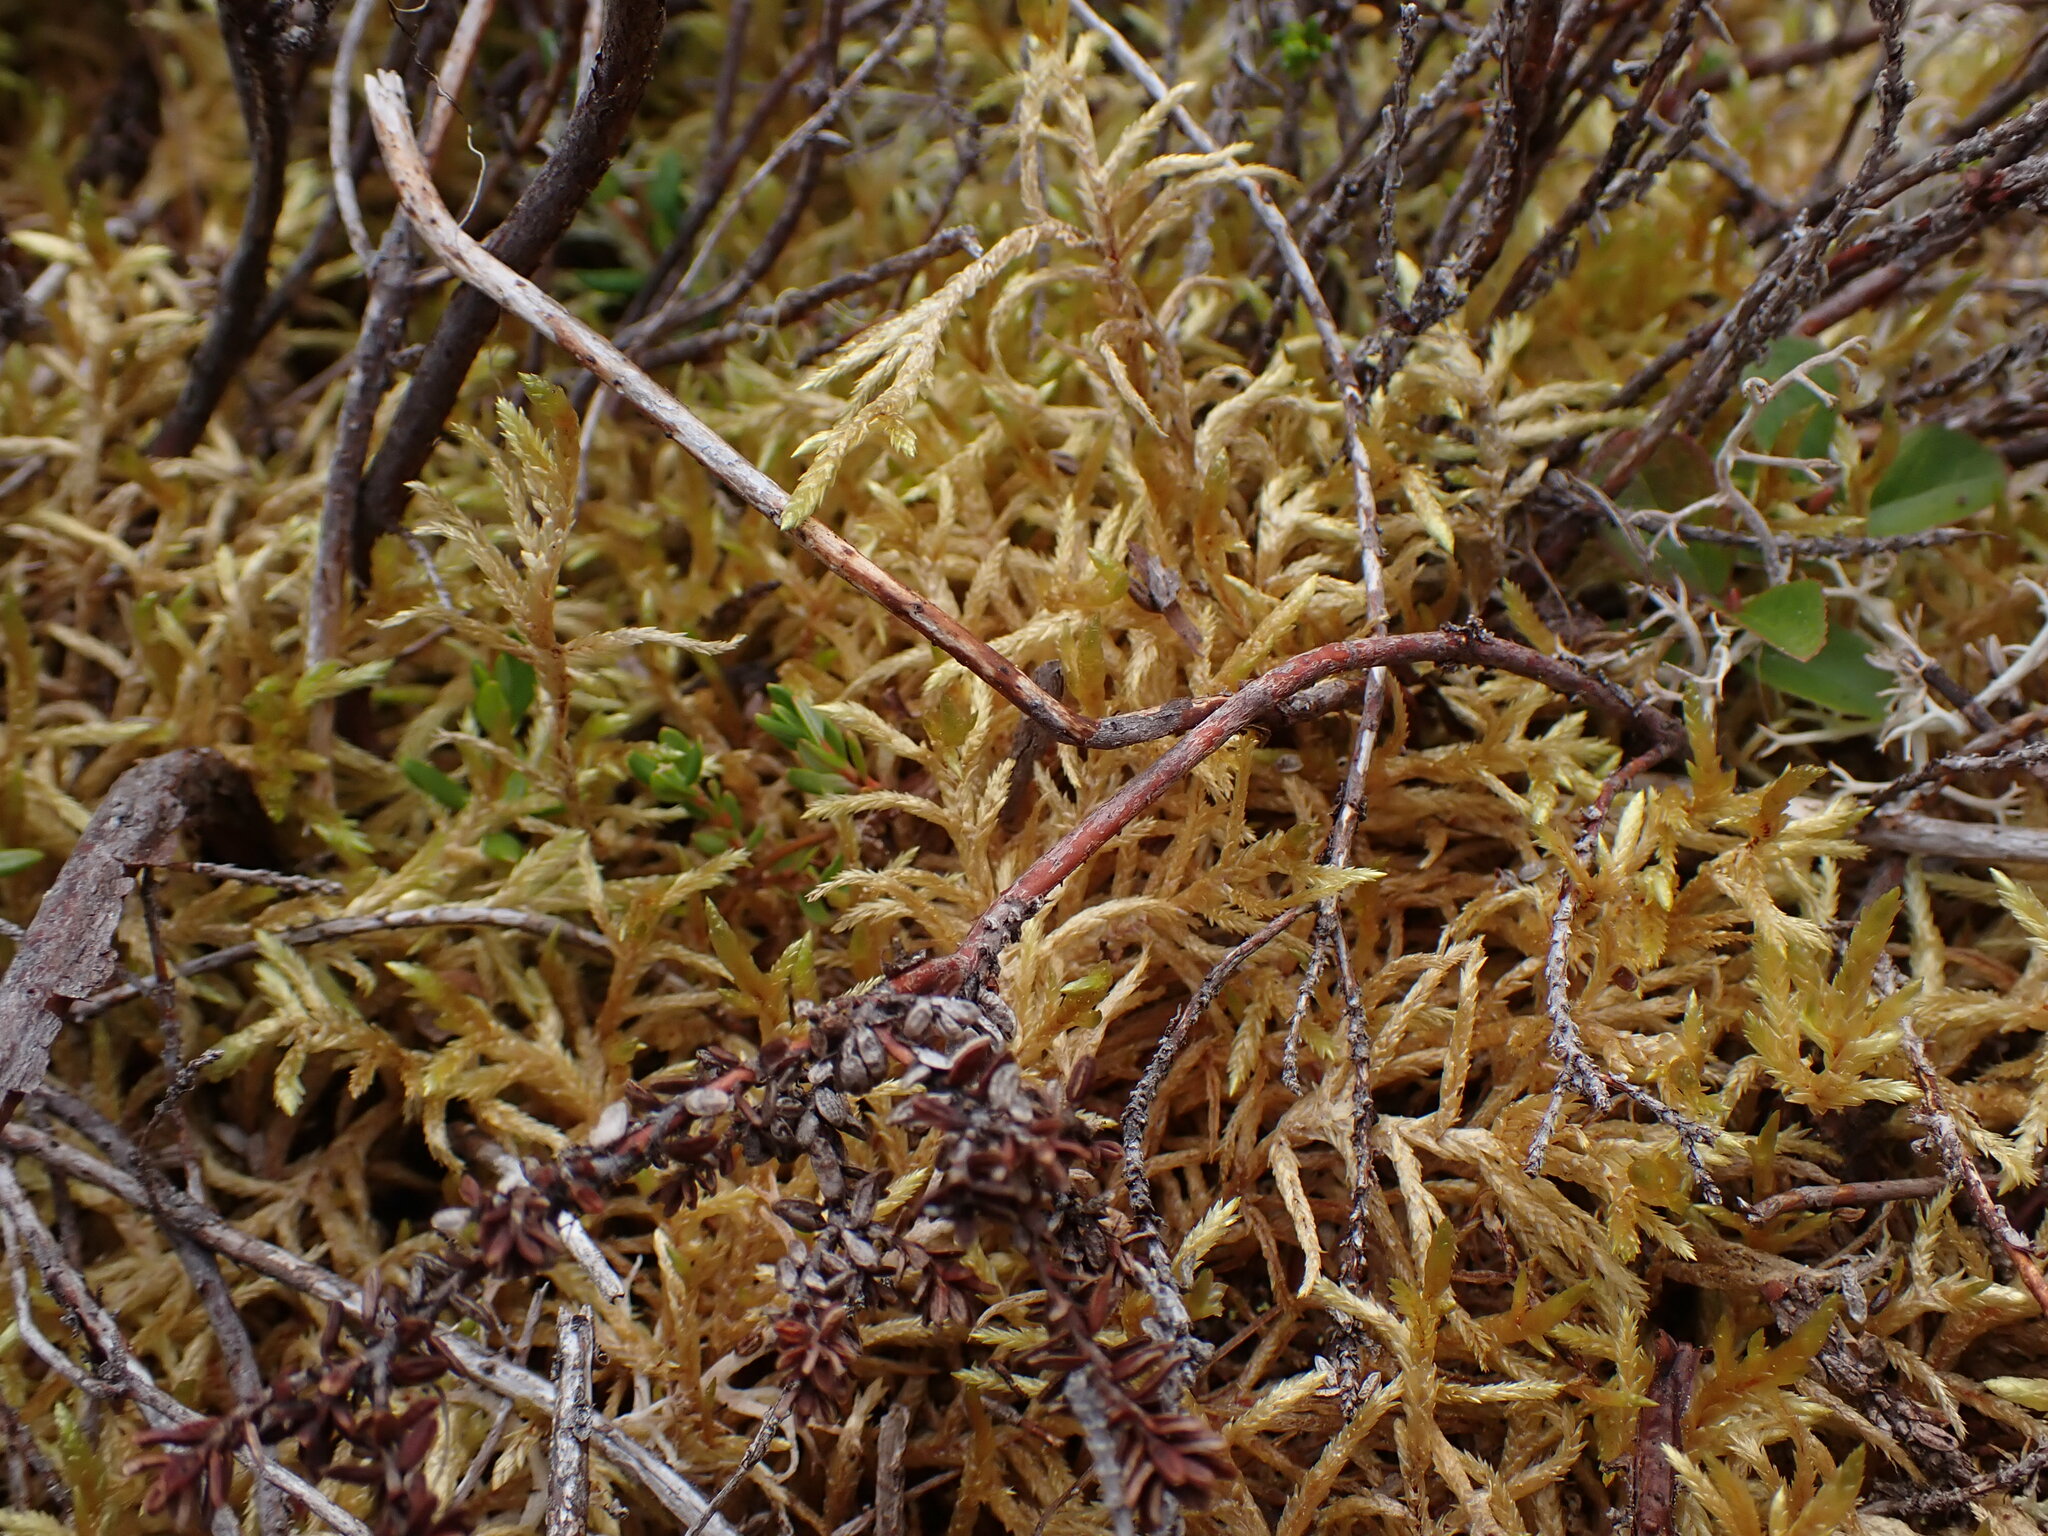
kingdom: Plantae
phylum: Bryophyta
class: Bryopsida
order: Hypnales
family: Hylocomiaceae
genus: Pleurozium
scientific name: Pleurozium schreberi
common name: Red-stemmed feather moss
